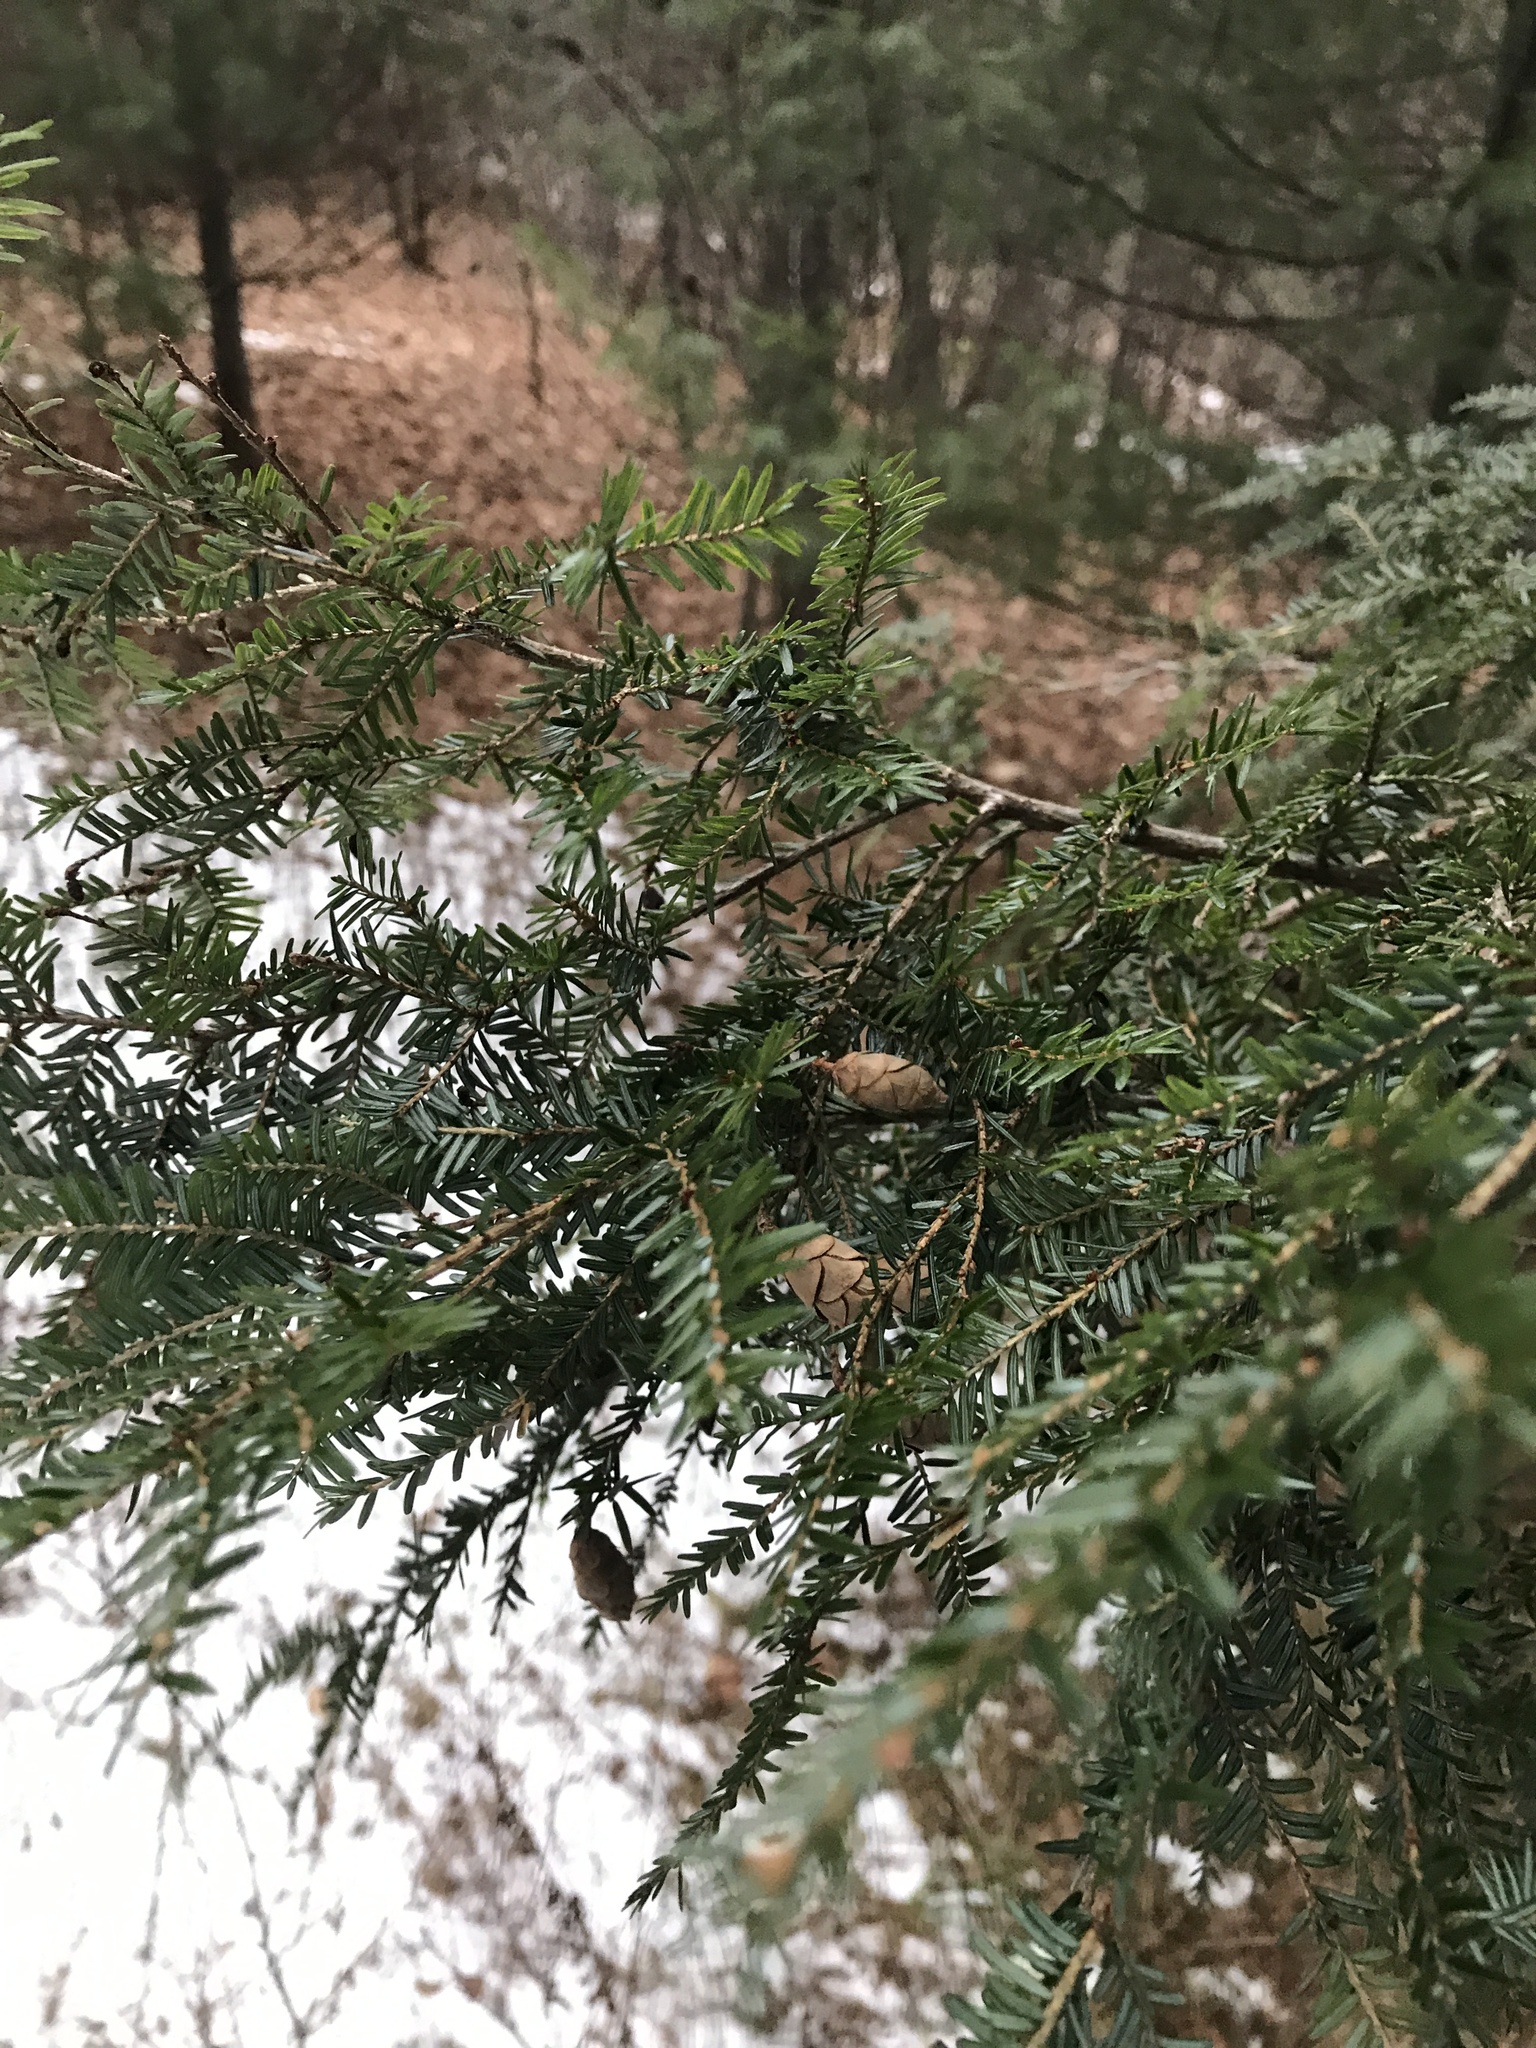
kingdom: Plantae
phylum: Tracheophyta
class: Pinopsida
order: Pinales
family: Pinaceae
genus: Tsuga
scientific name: Tsuga canadensis
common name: Eastern hemlock
